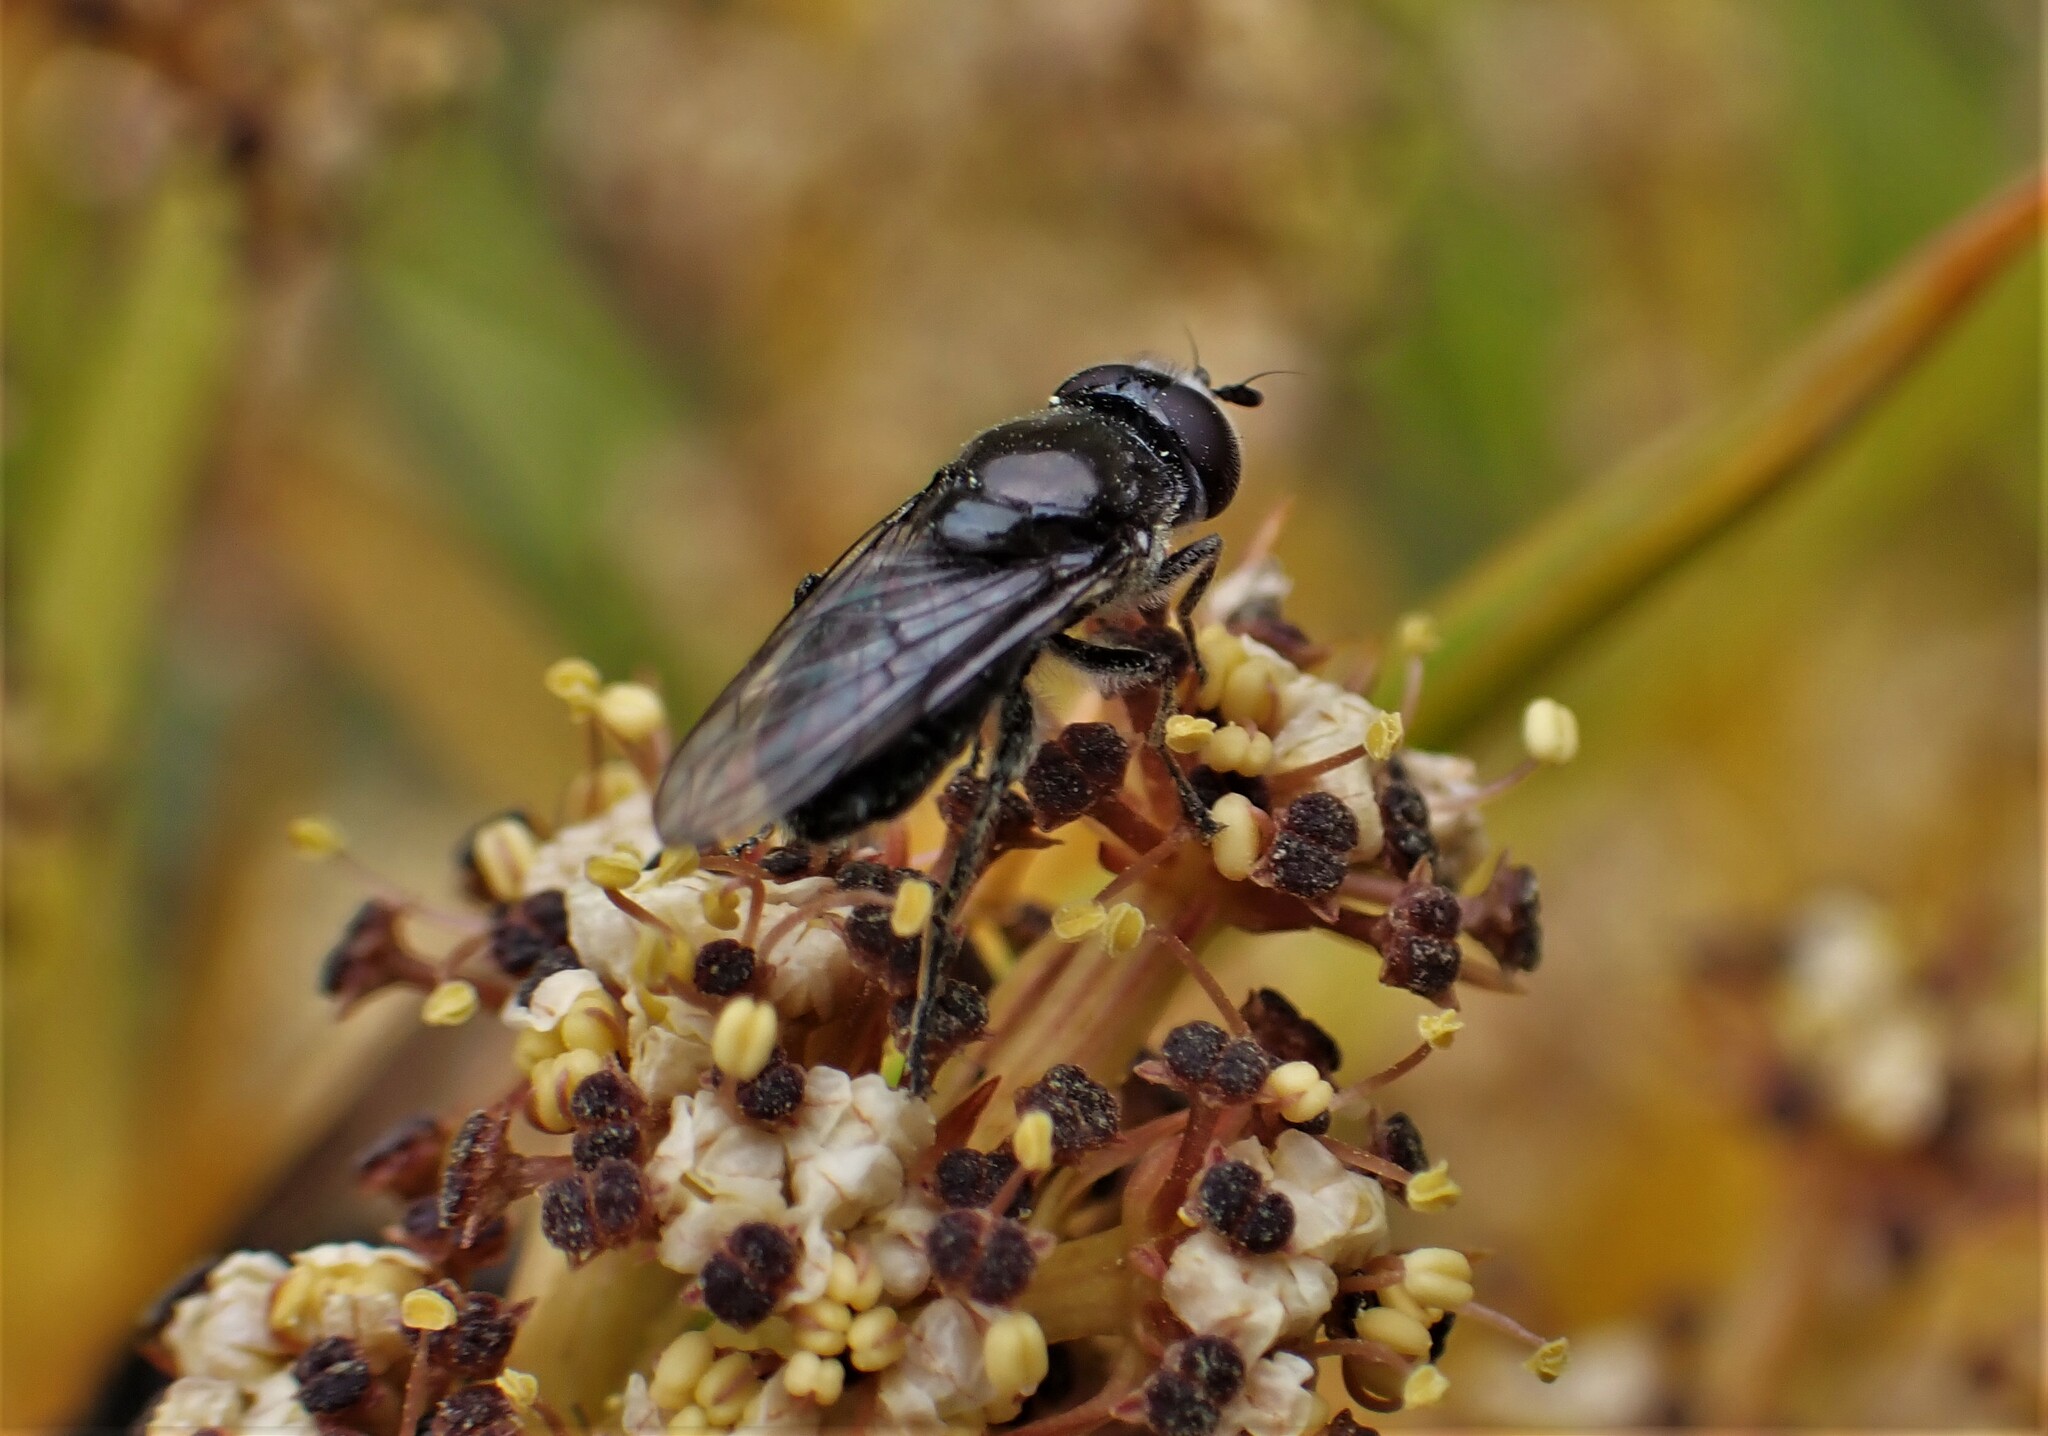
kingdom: Animalia
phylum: Arthropoda
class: Insecta
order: Diptera
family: Syrphidae
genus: Psilota
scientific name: Psilota decessum
